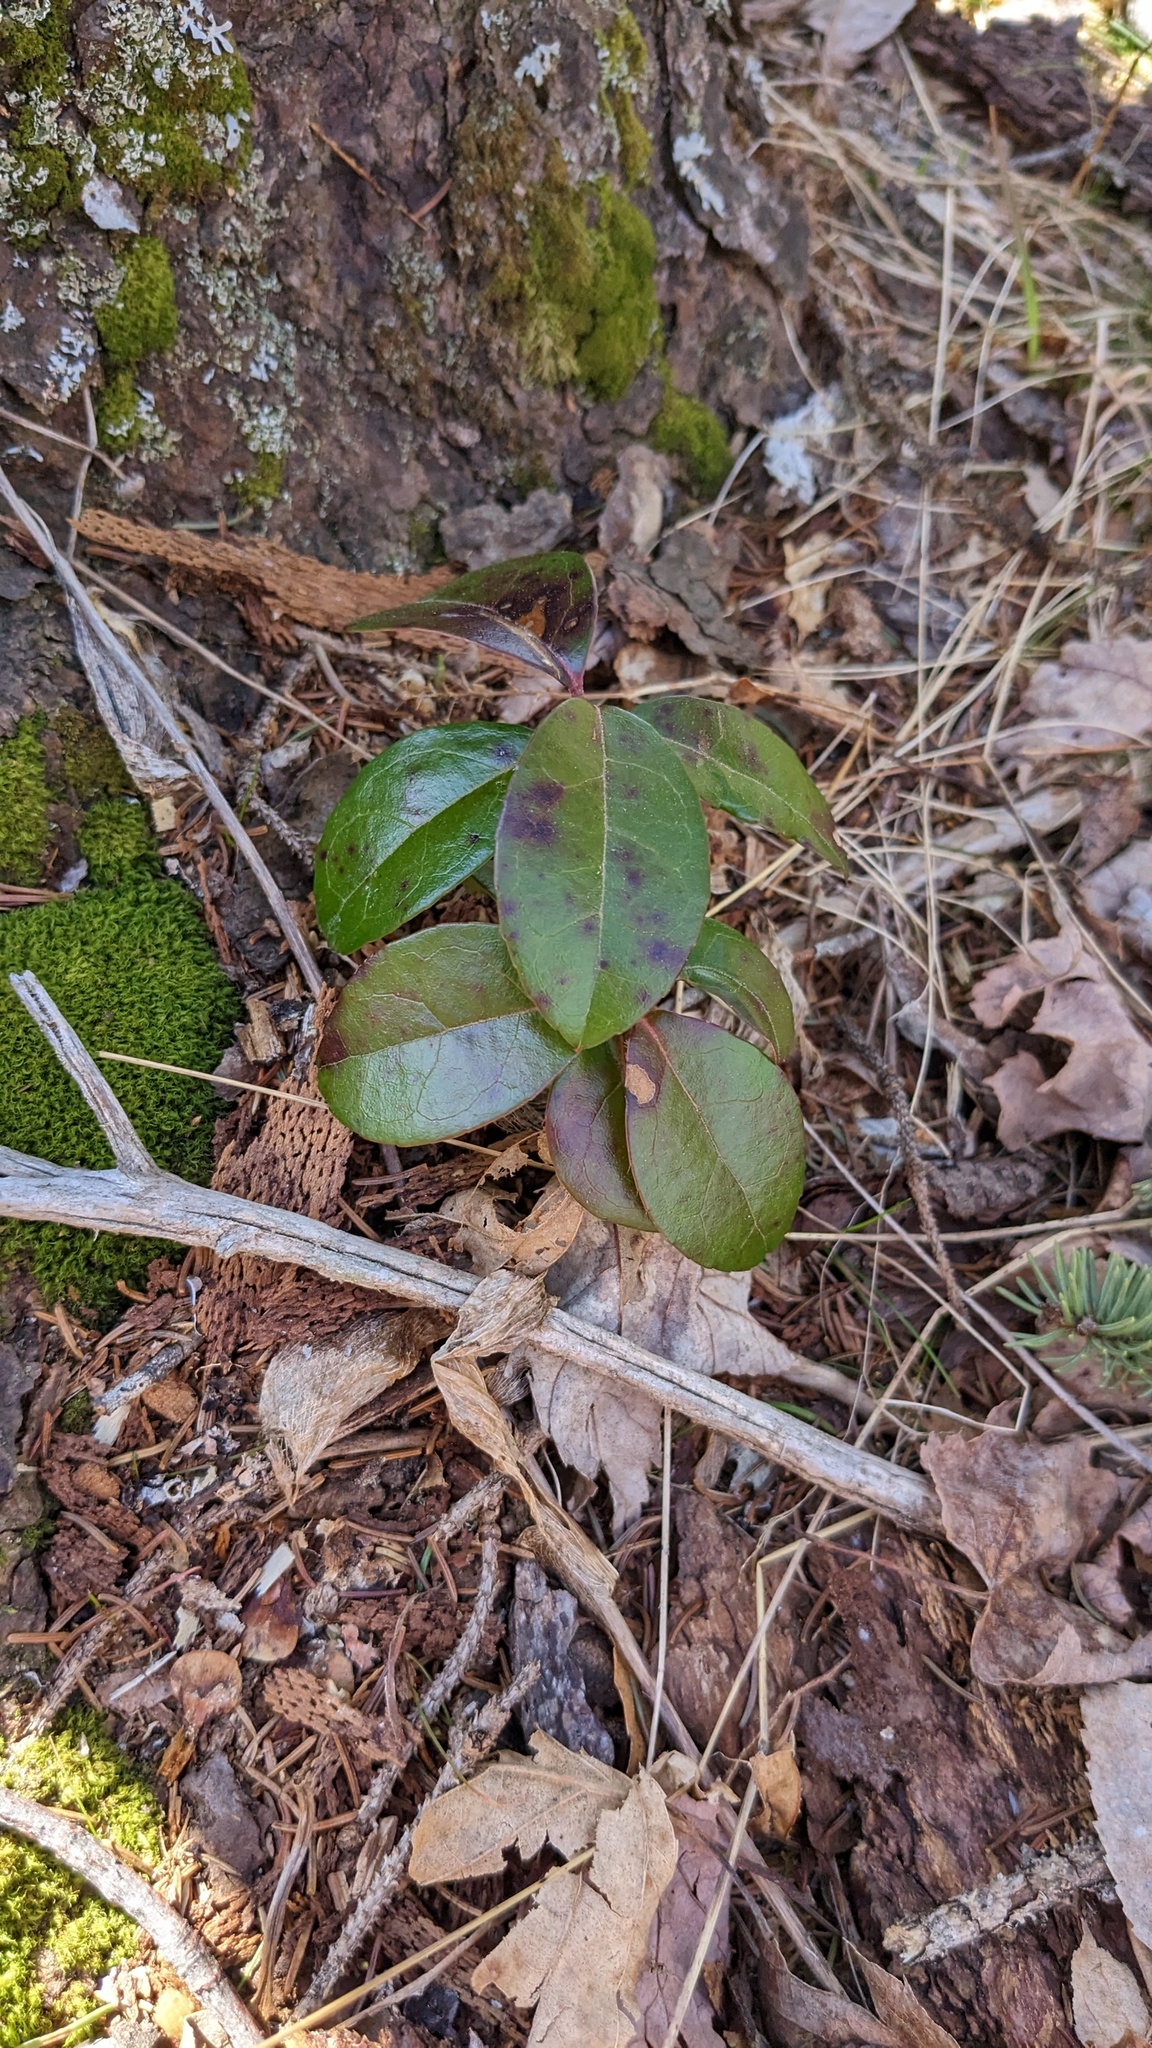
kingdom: Plantae
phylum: Tracheophyta
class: Magnoliopsida
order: Ericales
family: Ericaceae
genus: Gaultheria
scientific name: Gaultheria procumbens
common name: Checkerberry
